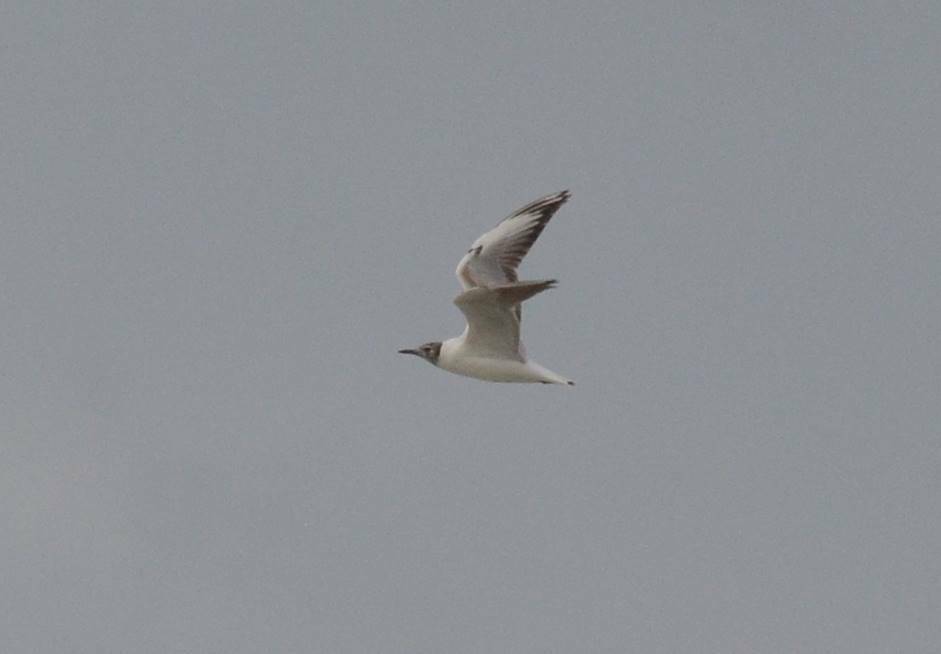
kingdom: Animalia
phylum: Chordata
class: Aves
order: Charadriiformes
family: Laridae
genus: Chroicocephalus
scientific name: Chroicocephalus ridibundus
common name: Black-headed gull
